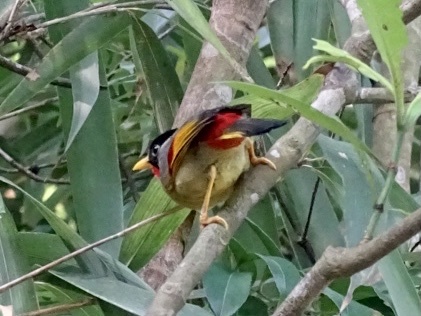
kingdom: Animalia
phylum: Chordata
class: Aves
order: Passeriformes
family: Leiothrichidae
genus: Leiothrix
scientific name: Leiothrix argentauris
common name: Silver-eared mesia
